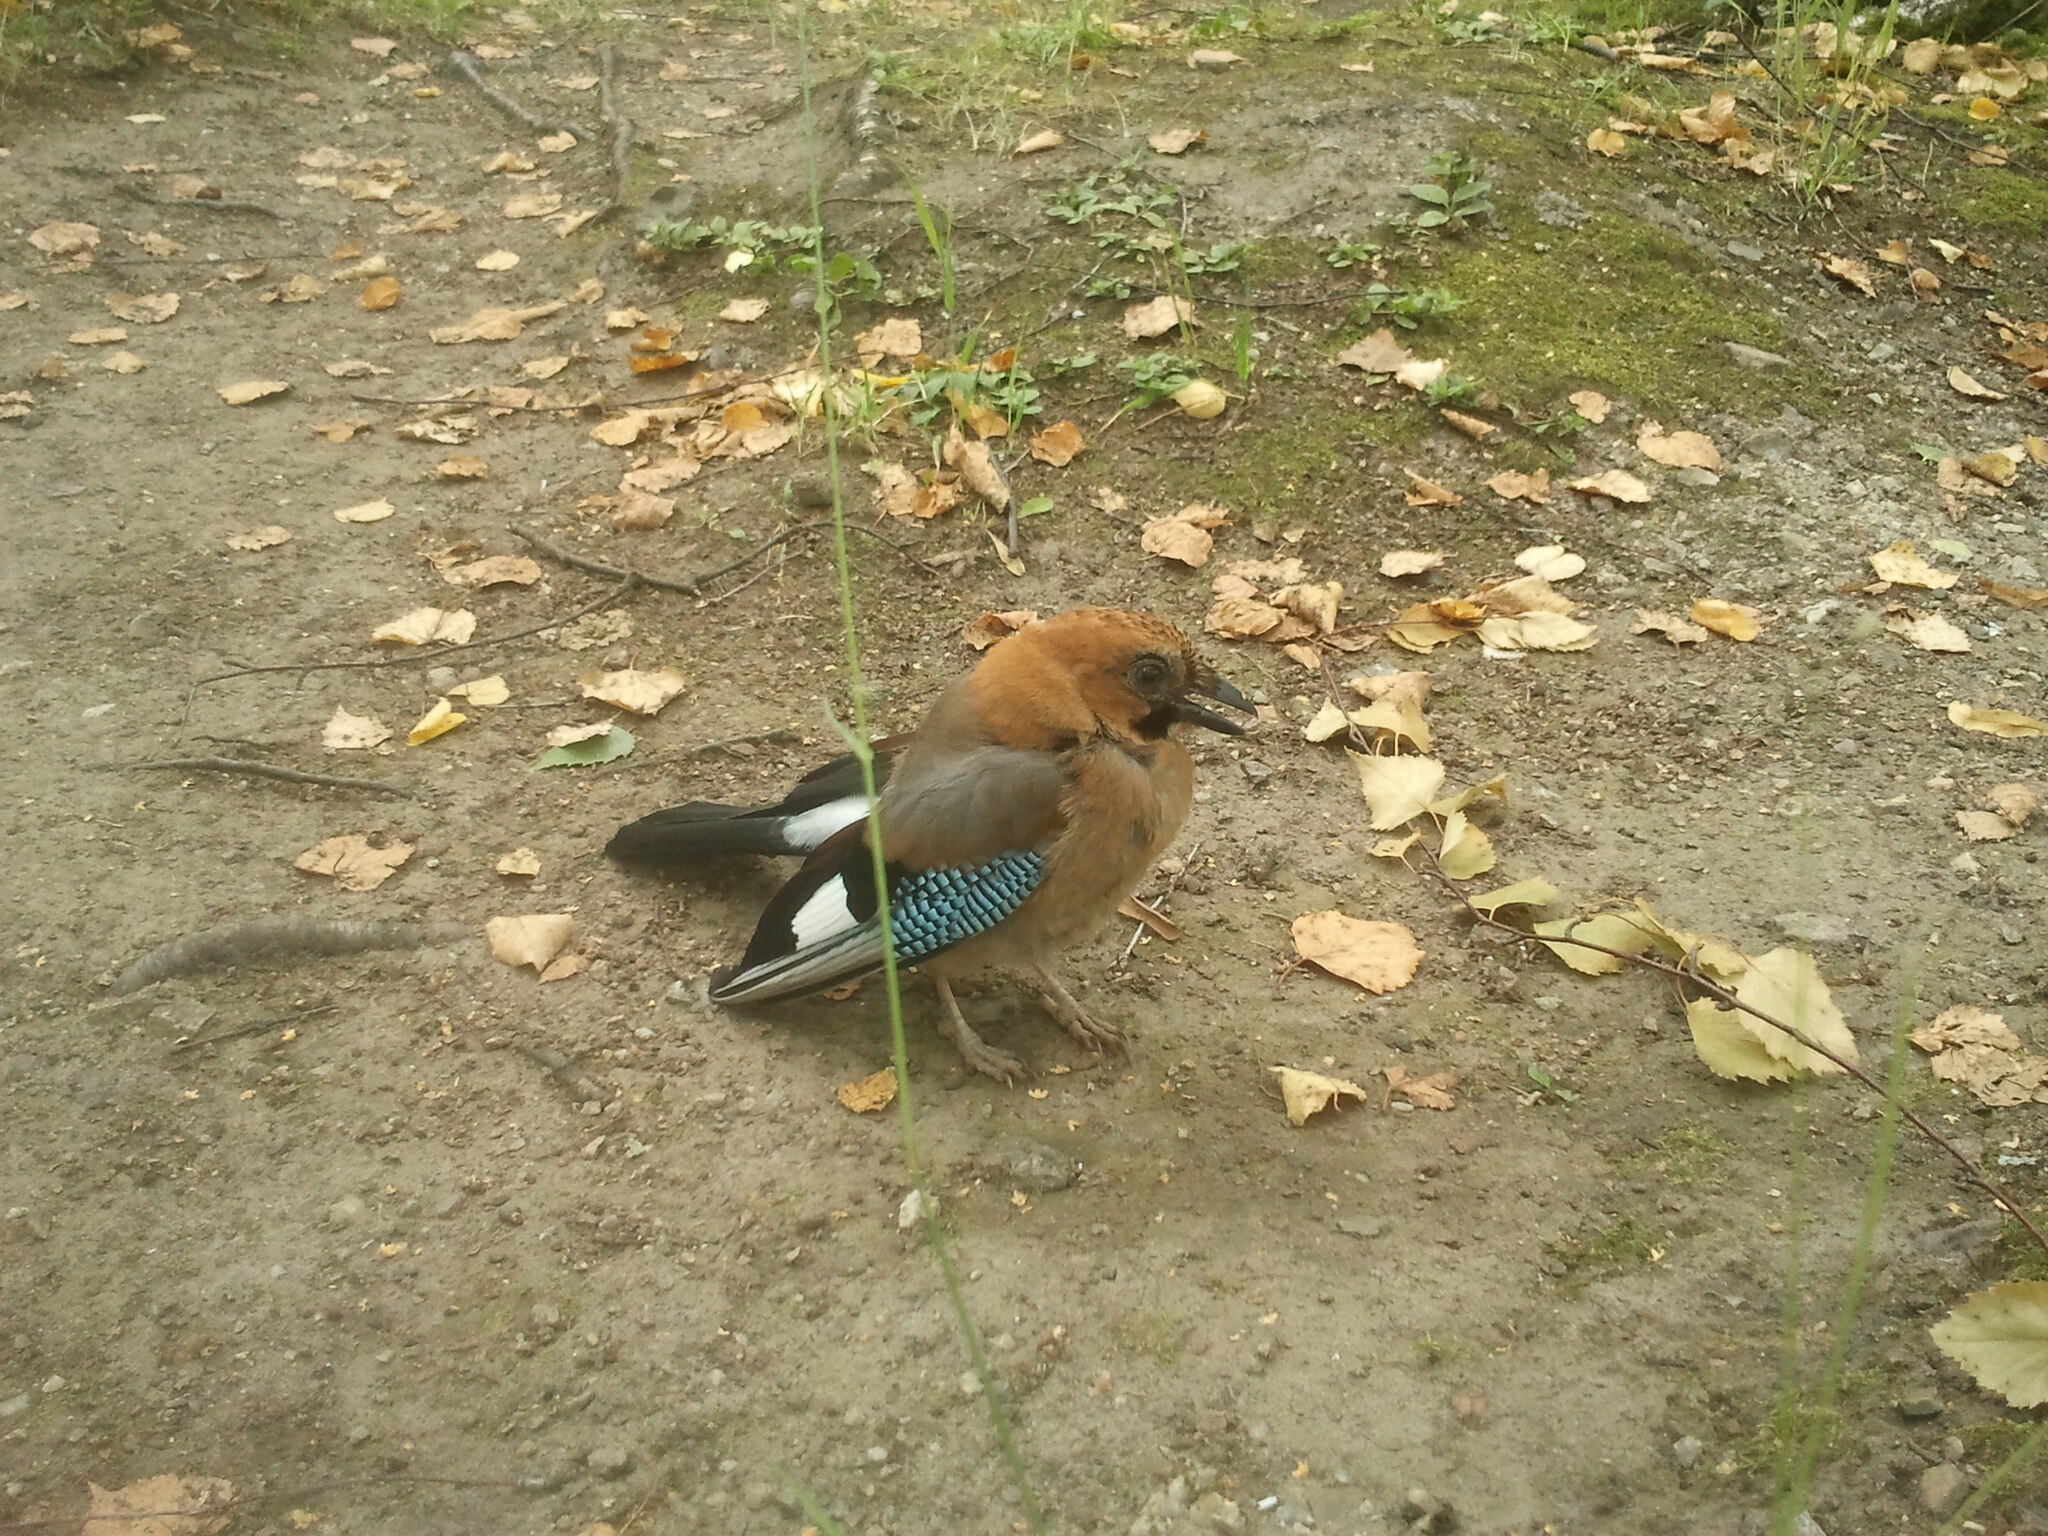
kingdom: Animalia
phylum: Chordata
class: Aves
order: Passeriformes
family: Corvidae
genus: Garrulus
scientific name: Garrulus glandarius
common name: Eurasian jay
